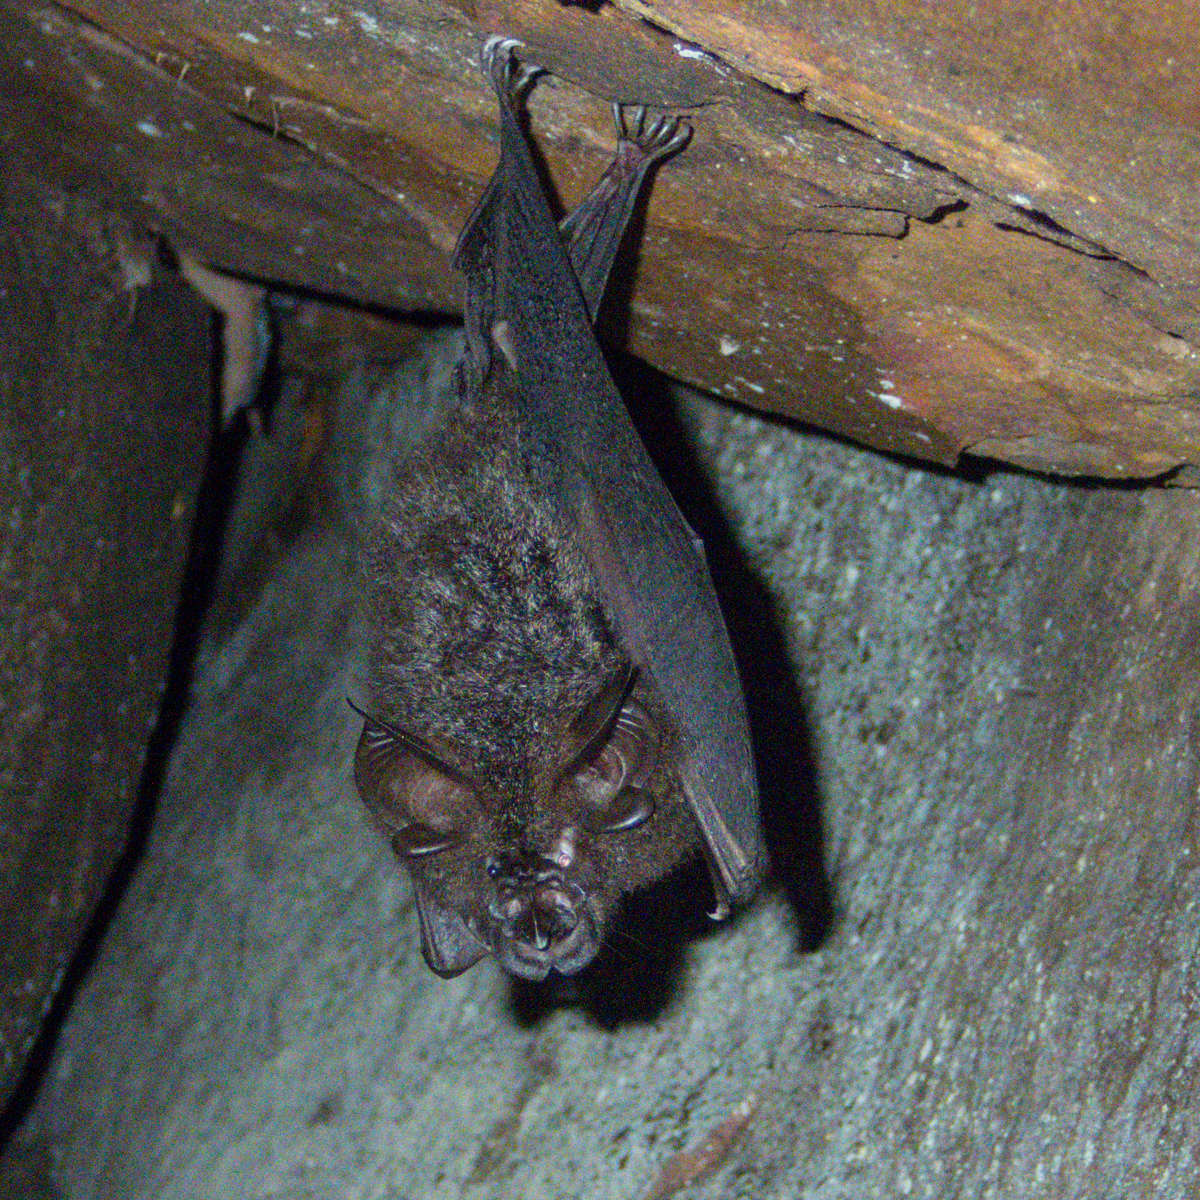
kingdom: Animalia
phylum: Chordata
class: Mammalia
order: Chiroptera
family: Rhinolophidae
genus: Rhinolophus
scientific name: Rhinolophus luctus
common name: Woolly horseshoe bat
